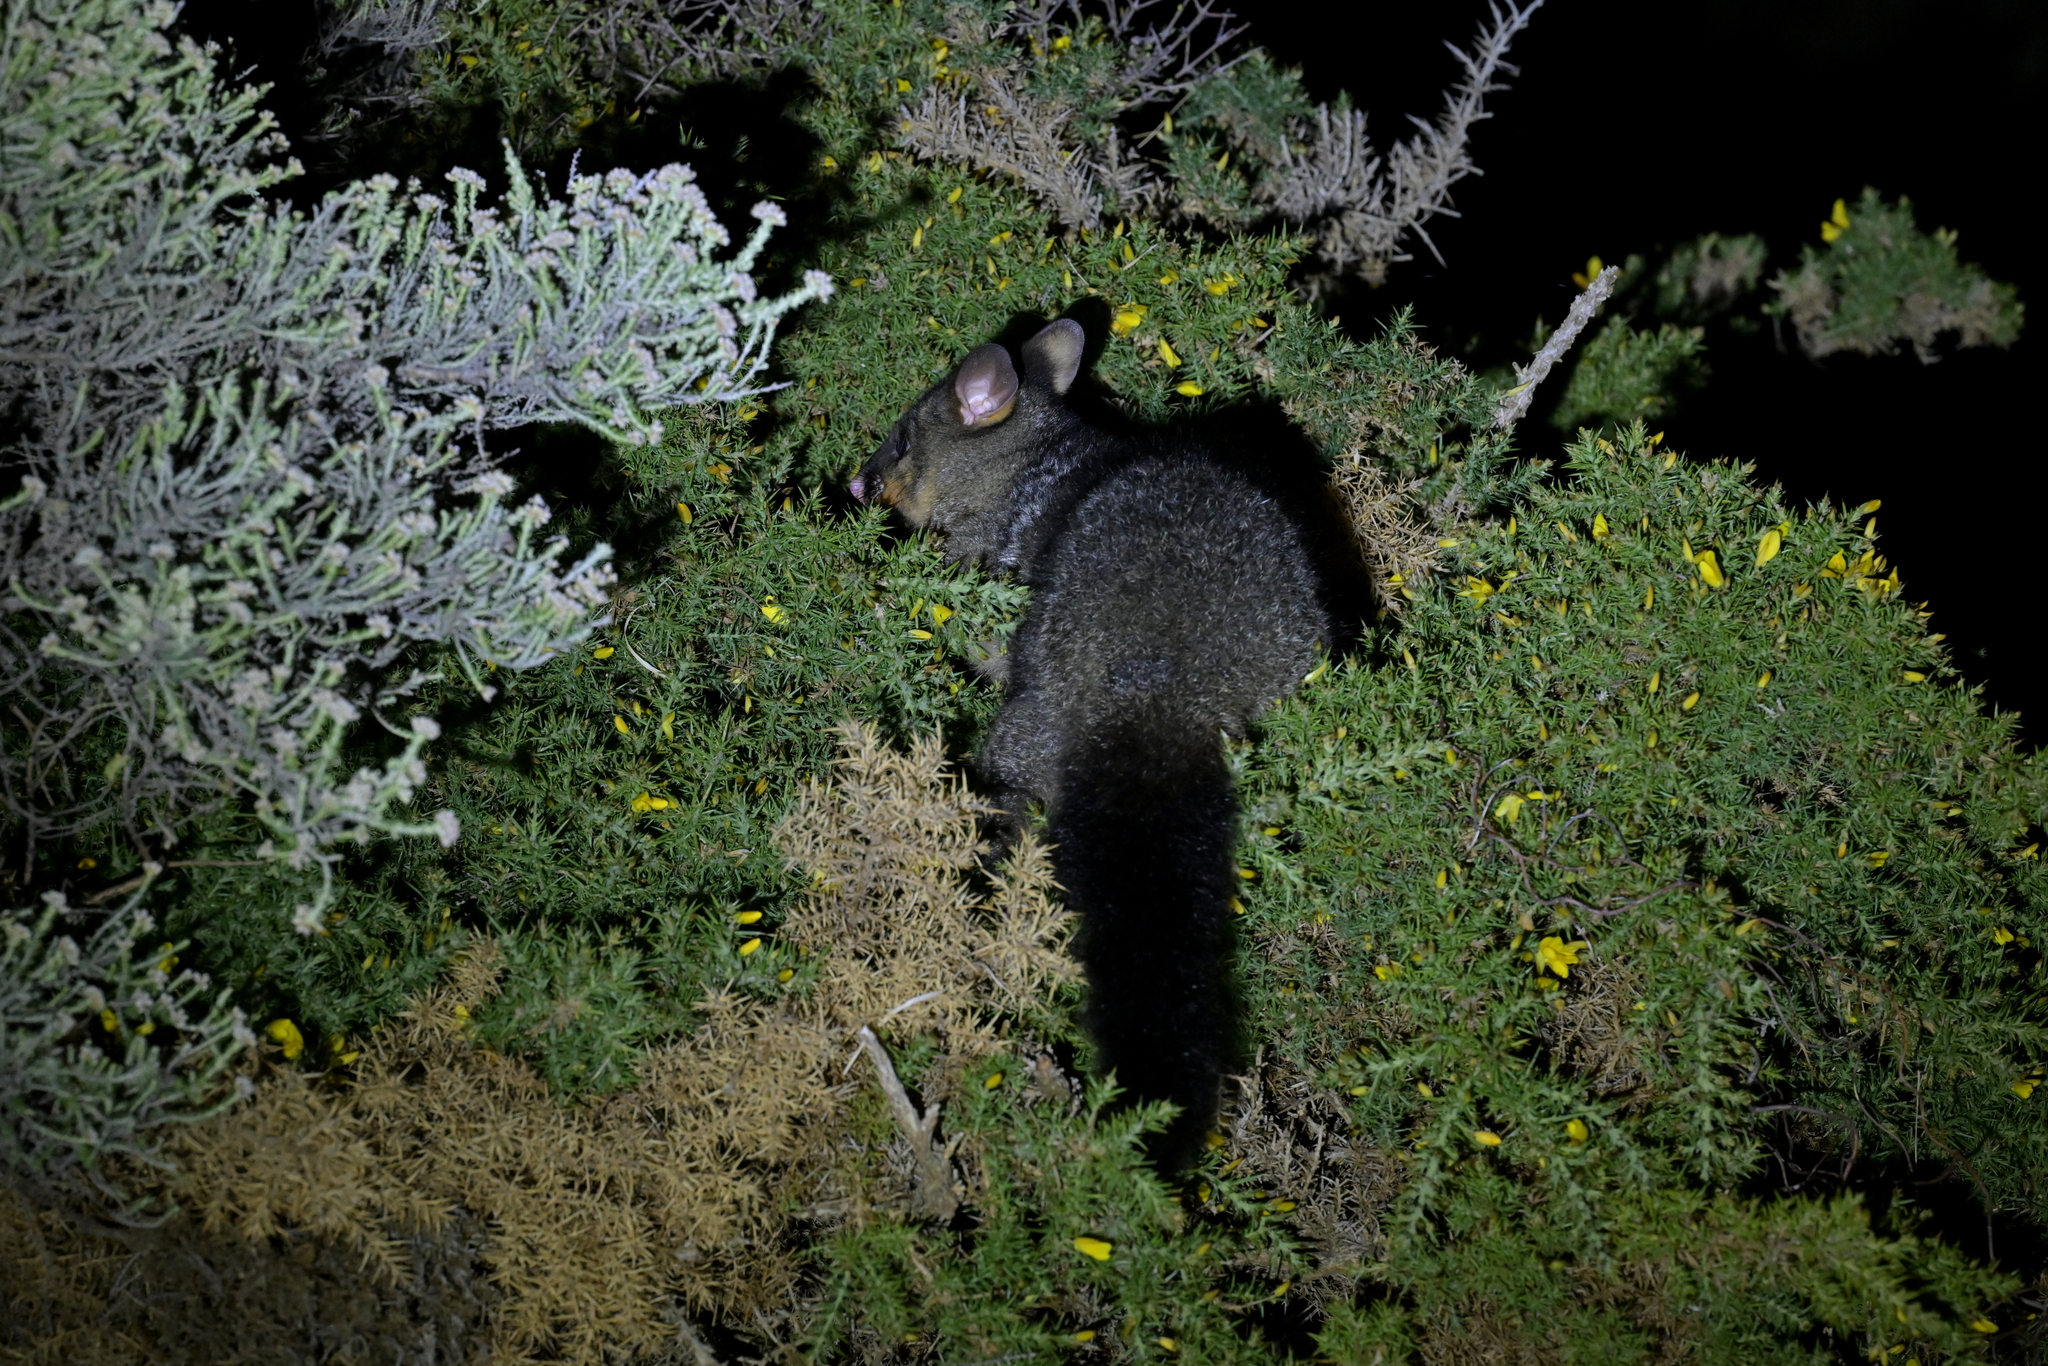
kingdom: Animalia
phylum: Chordata
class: Mammalia
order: Diprotodontia
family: Phalangeridae
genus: Trichosurus
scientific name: Trichosurus vulpecula
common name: Common brushtail
